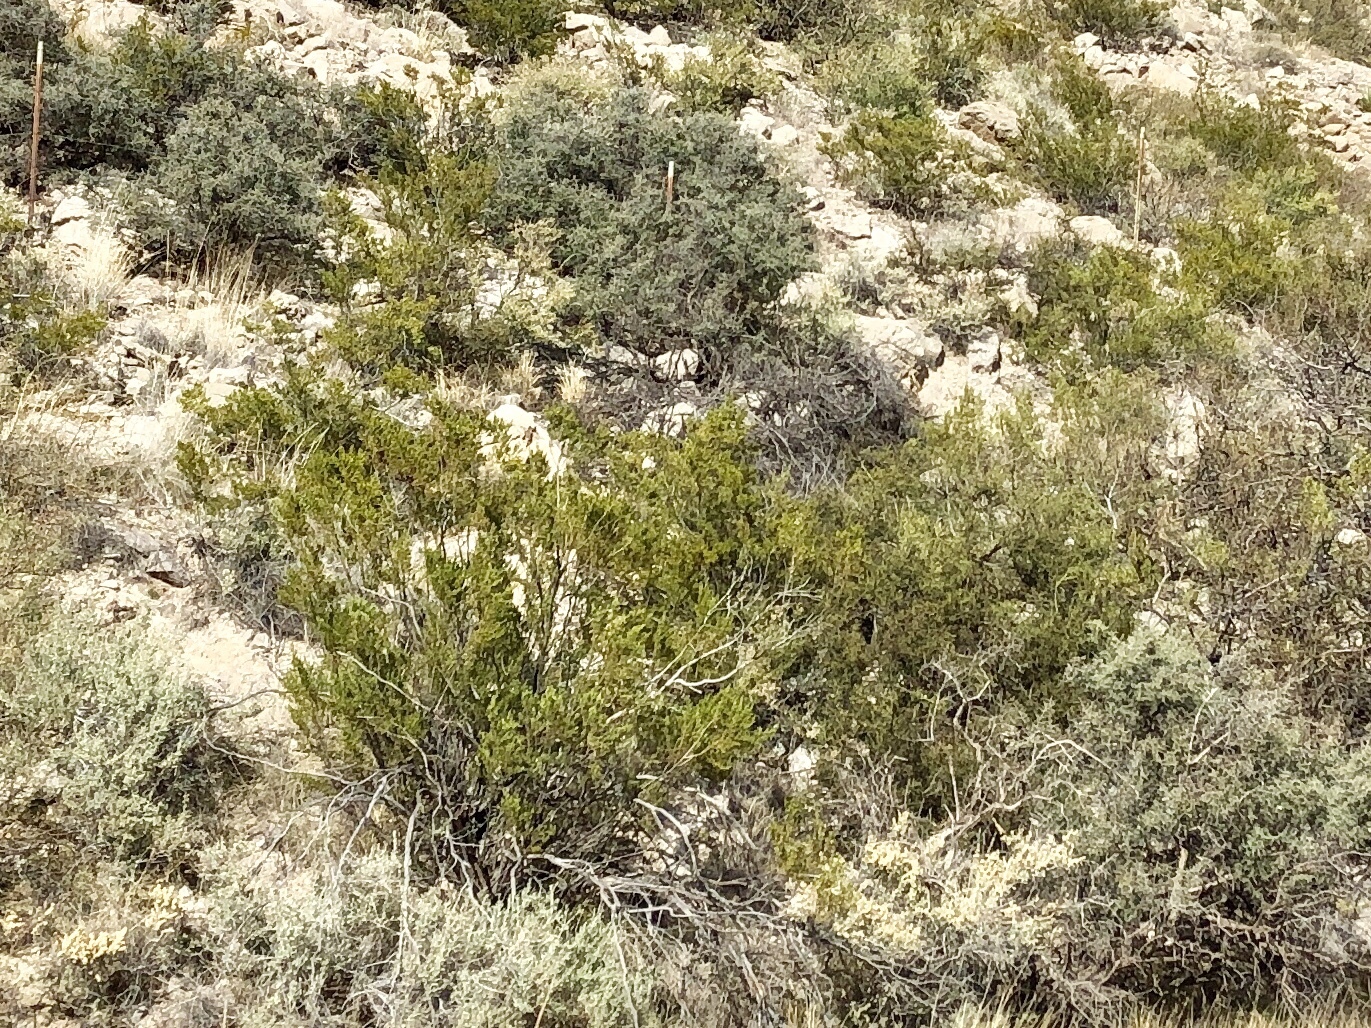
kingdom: Plantae
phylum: Tracheophyta
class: Magnoliopsida
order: Zygophyllales
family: Zygophyllaceae
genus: Larrea
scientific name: Larrea tridentata
